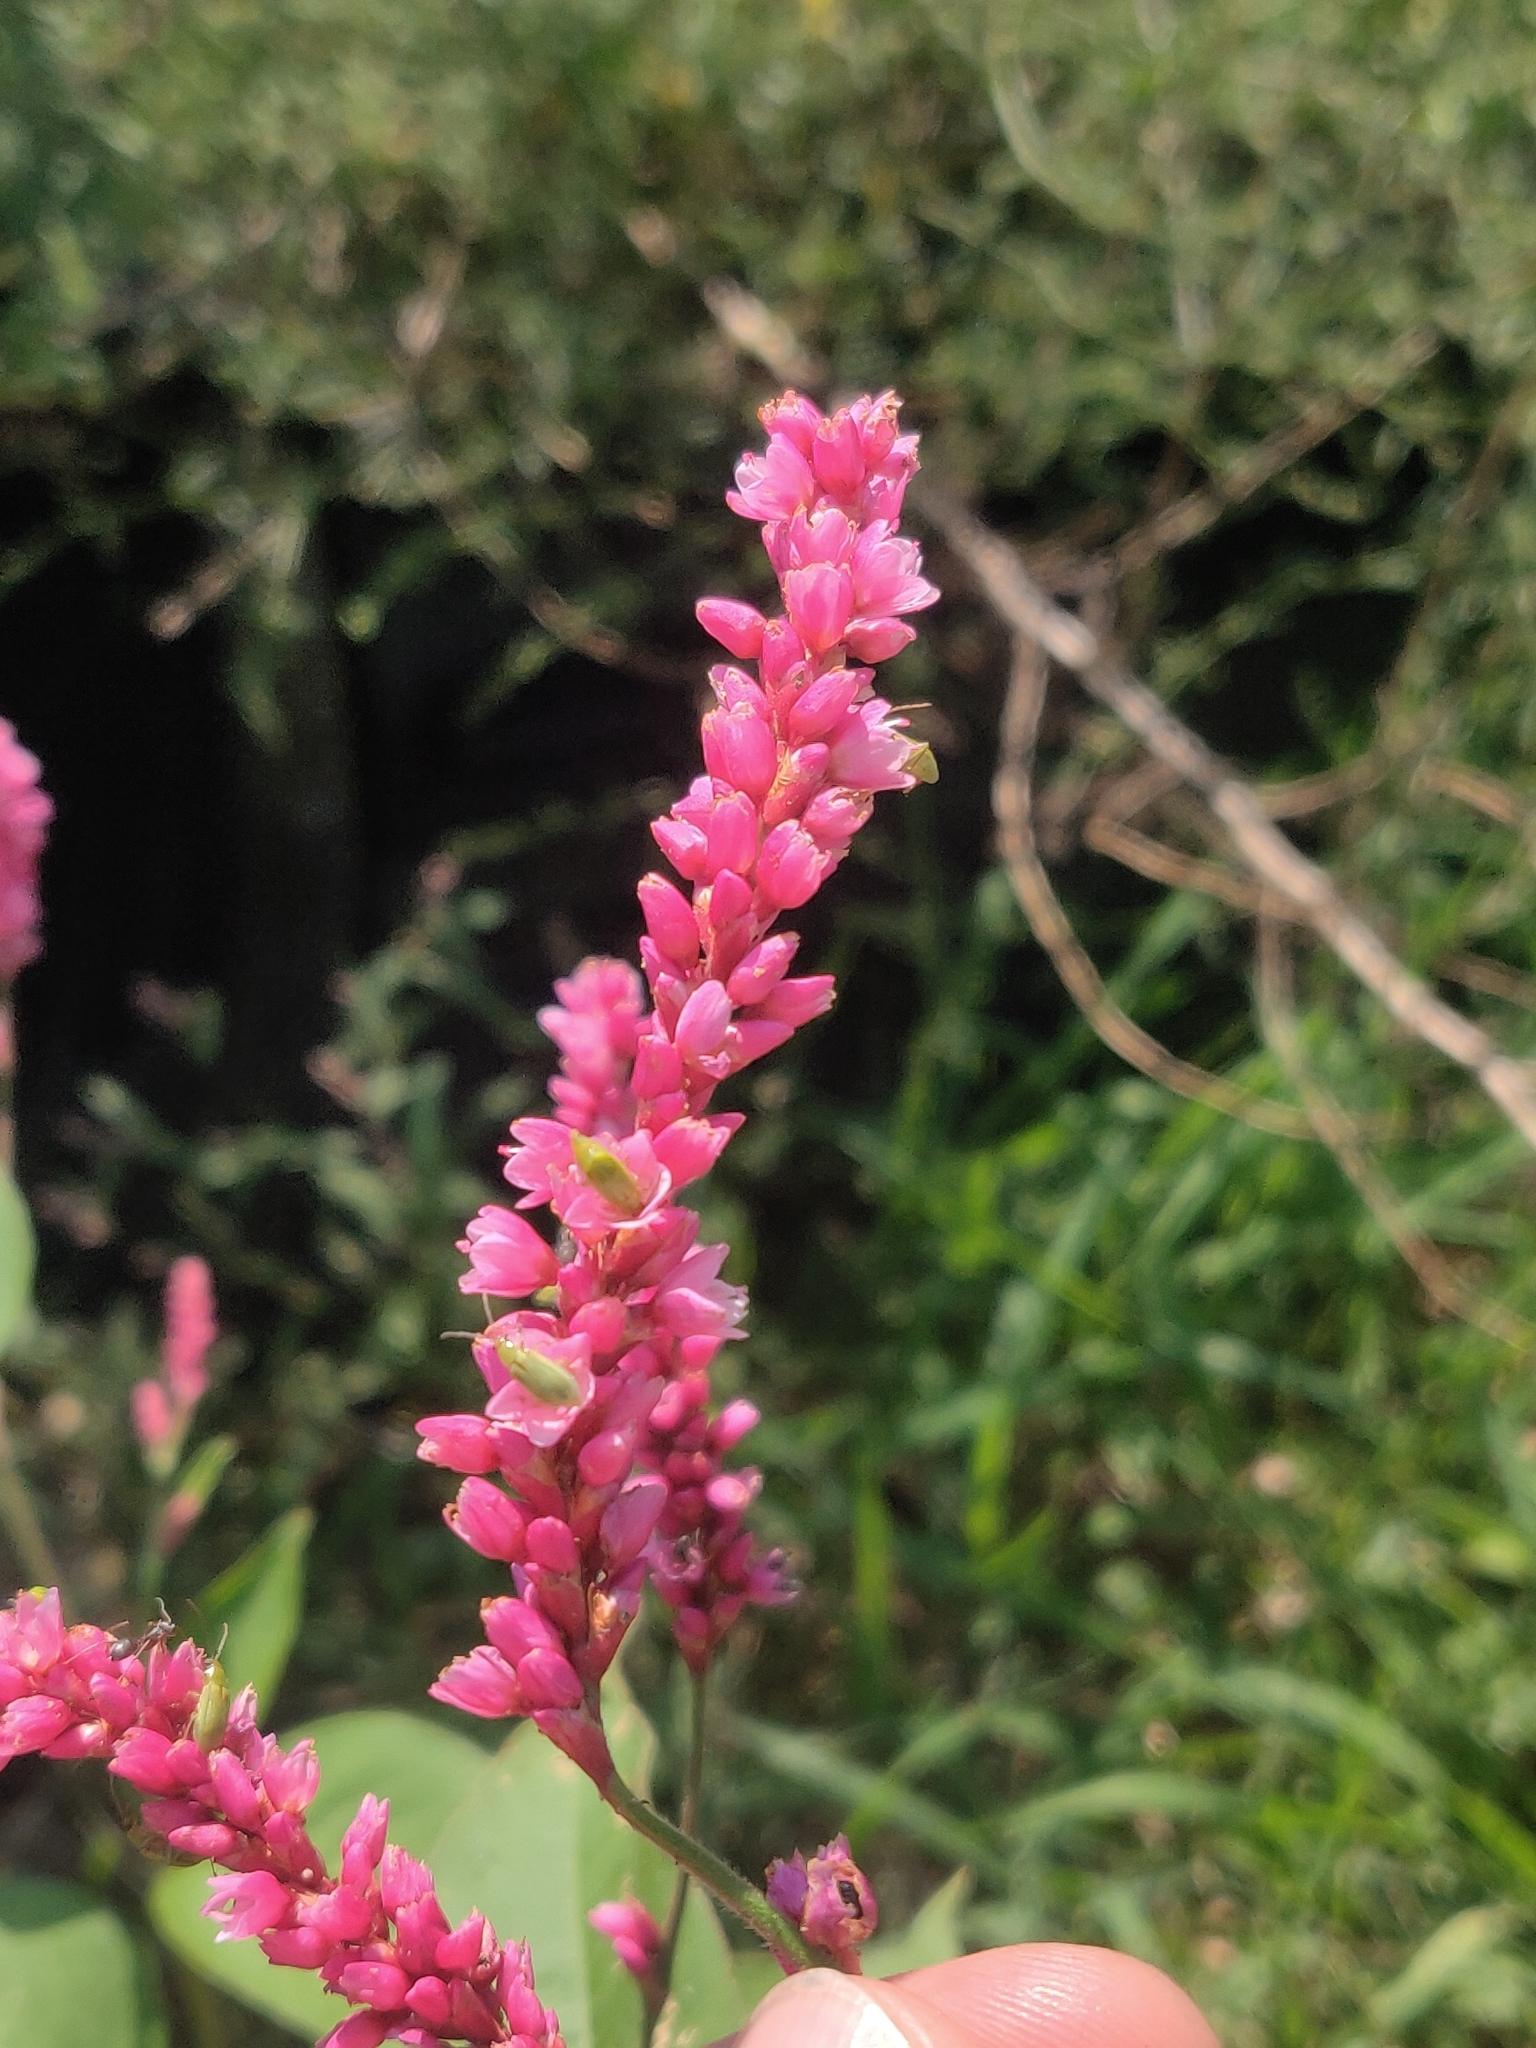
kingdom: Plantae
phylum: Tracheophyta
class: Magnoliopsida
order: Caryophyllales
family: Polygonaceae
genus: Persicaria
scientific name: Persicaria amphibia
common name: Amphibious bistort
